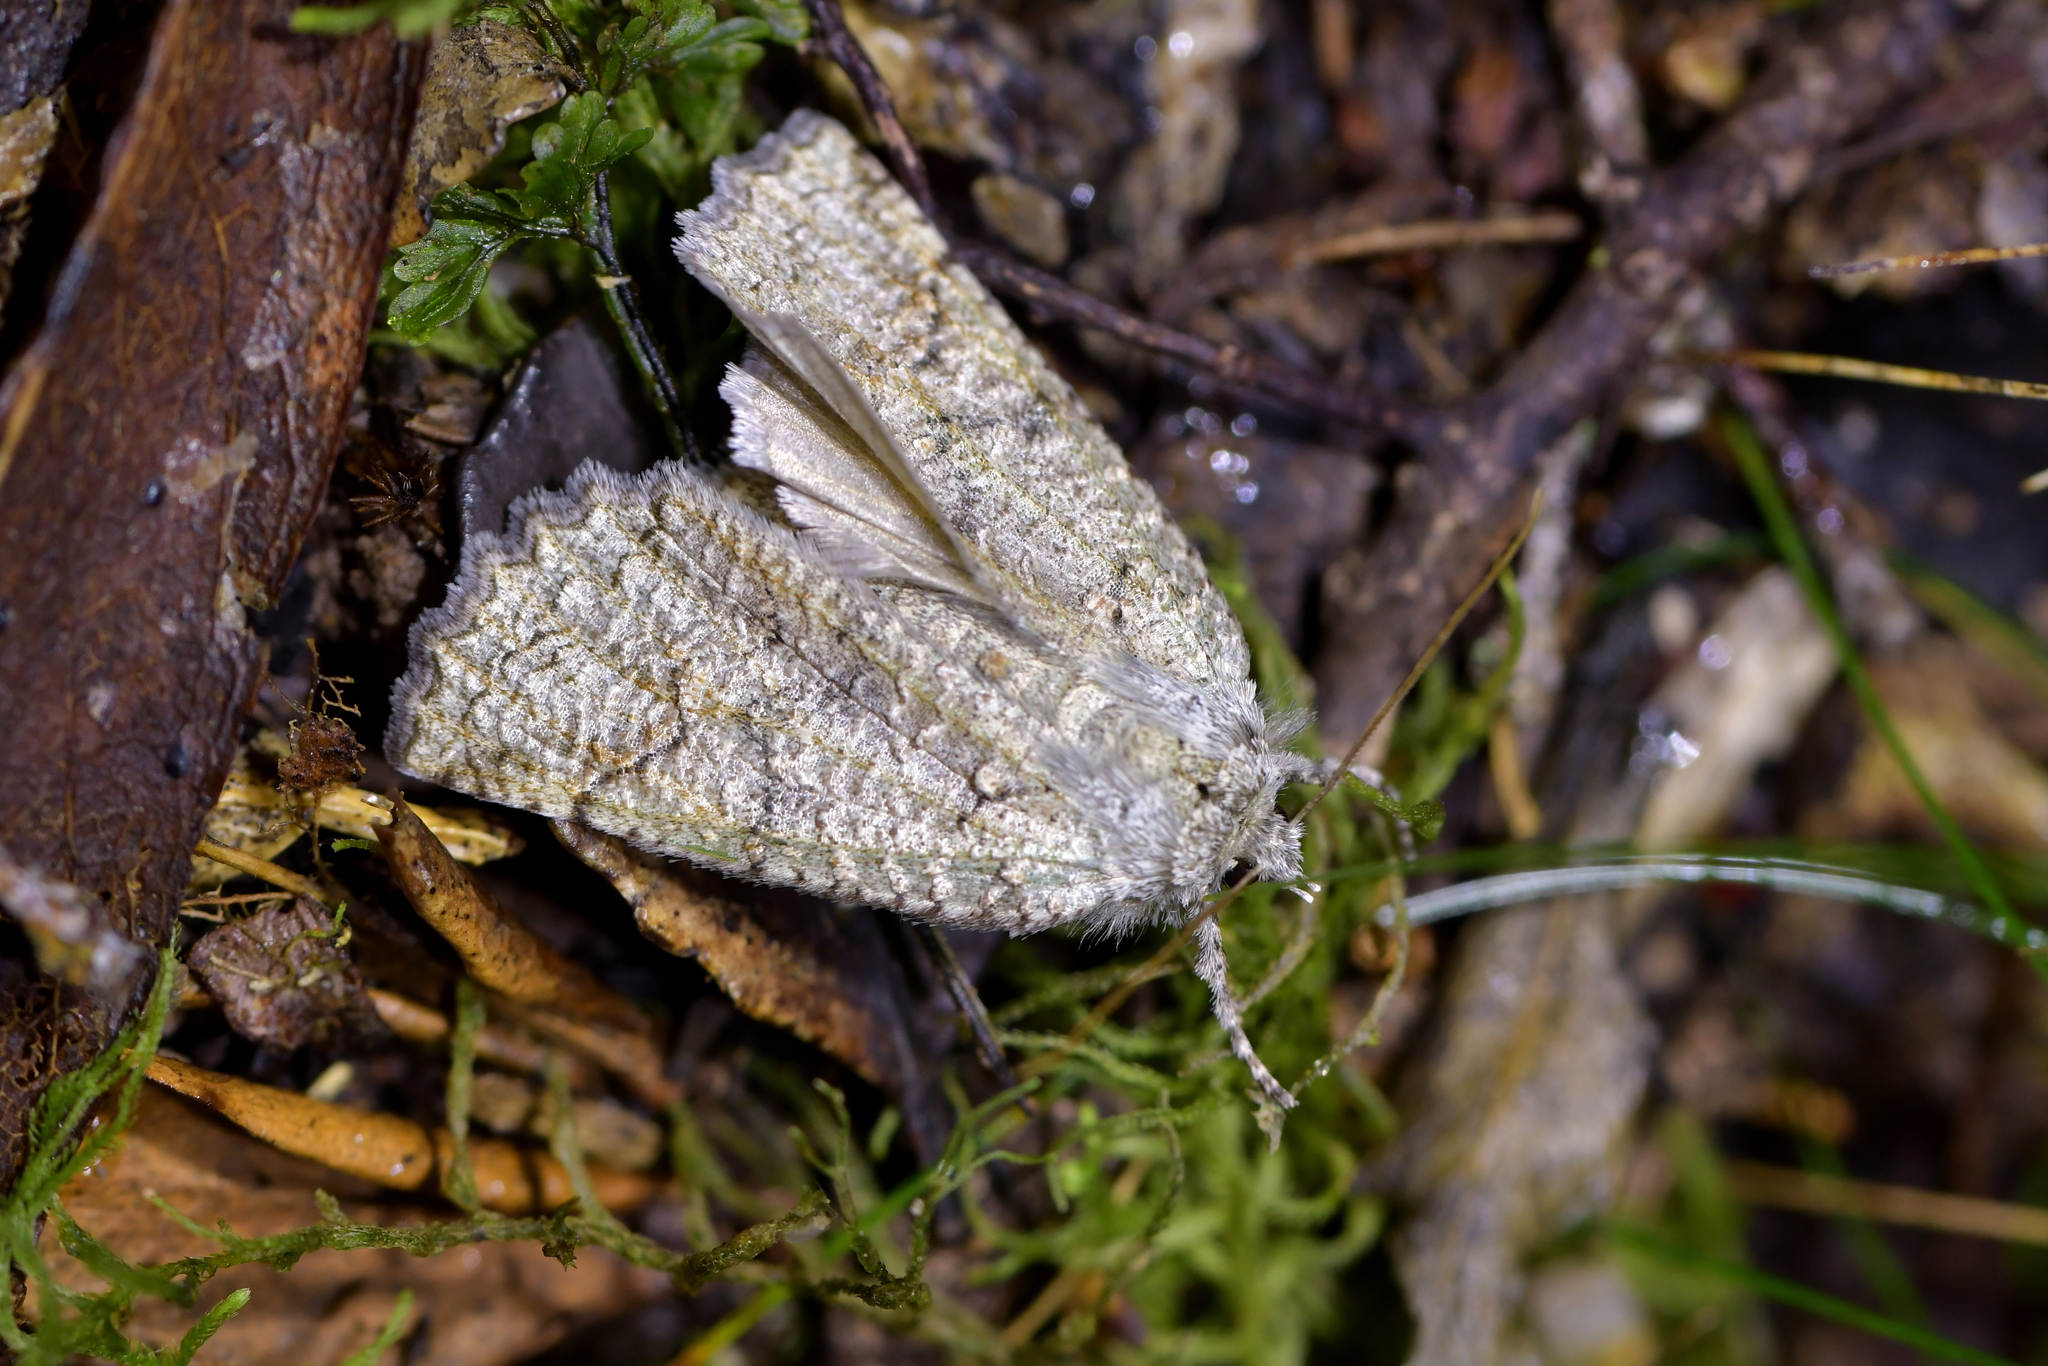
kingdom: Animalia
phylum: Arthropoda
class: Insecta
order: Lepidoptera
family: Geometridae
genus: Declana
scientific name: Declana floccosa
